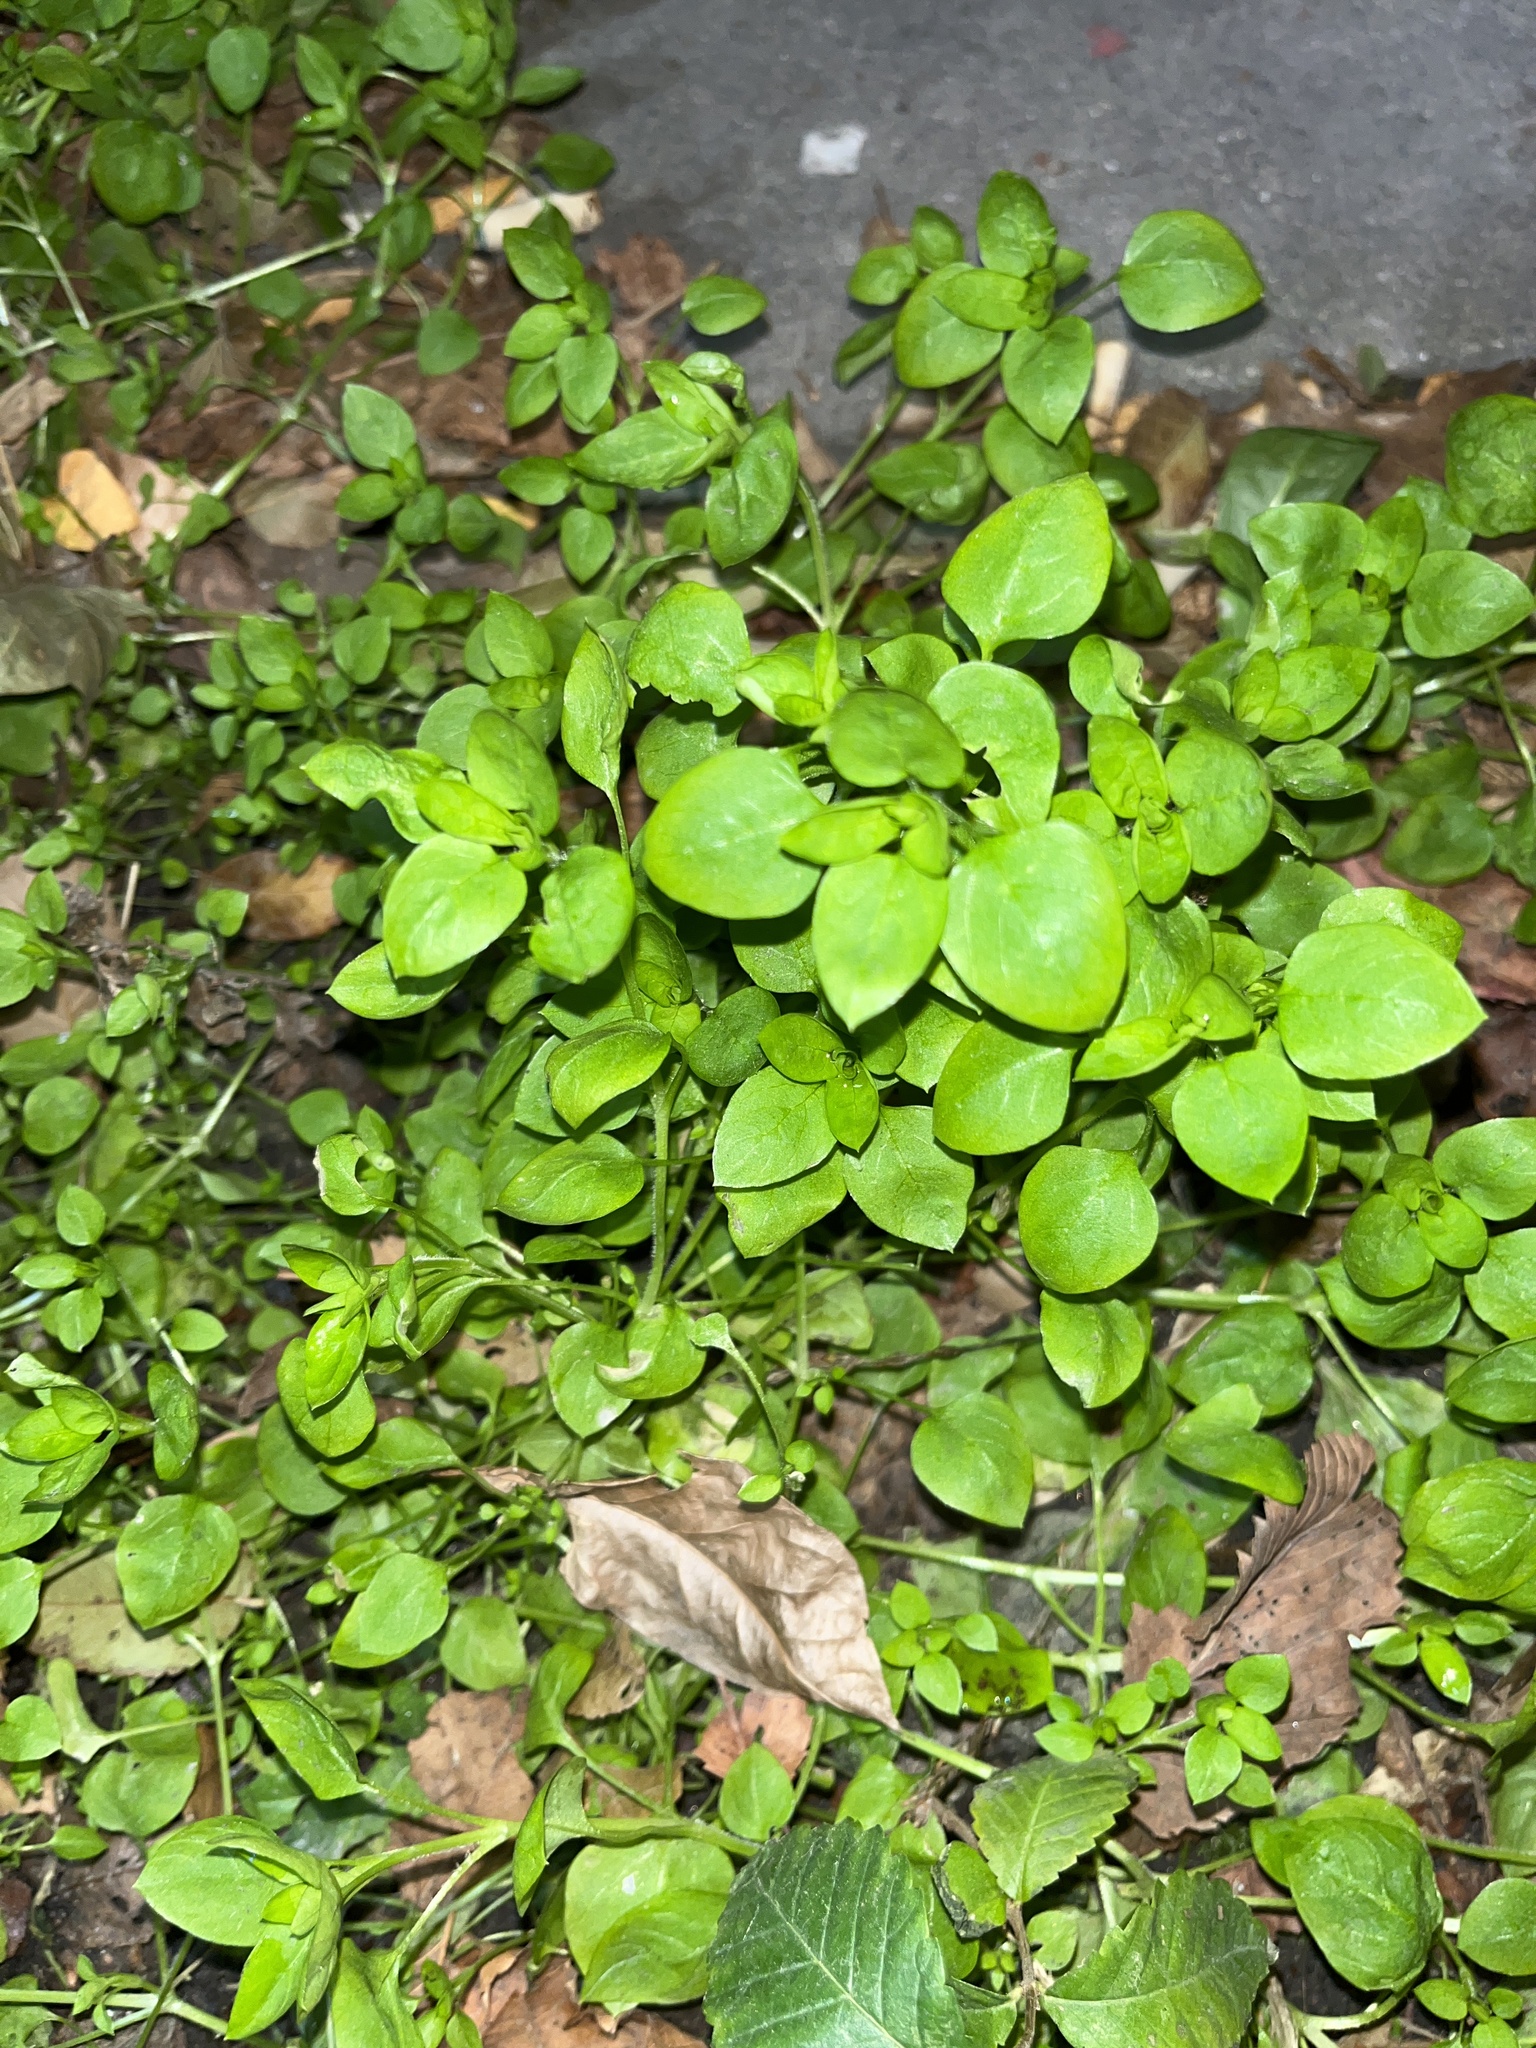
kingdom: Plantae
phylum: Tracheophyta
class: Magnoliopsida
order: Caryophyllales
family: Caryophyllaceae
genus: Stellaria
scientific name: Stellaria media
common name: Common chickweed
